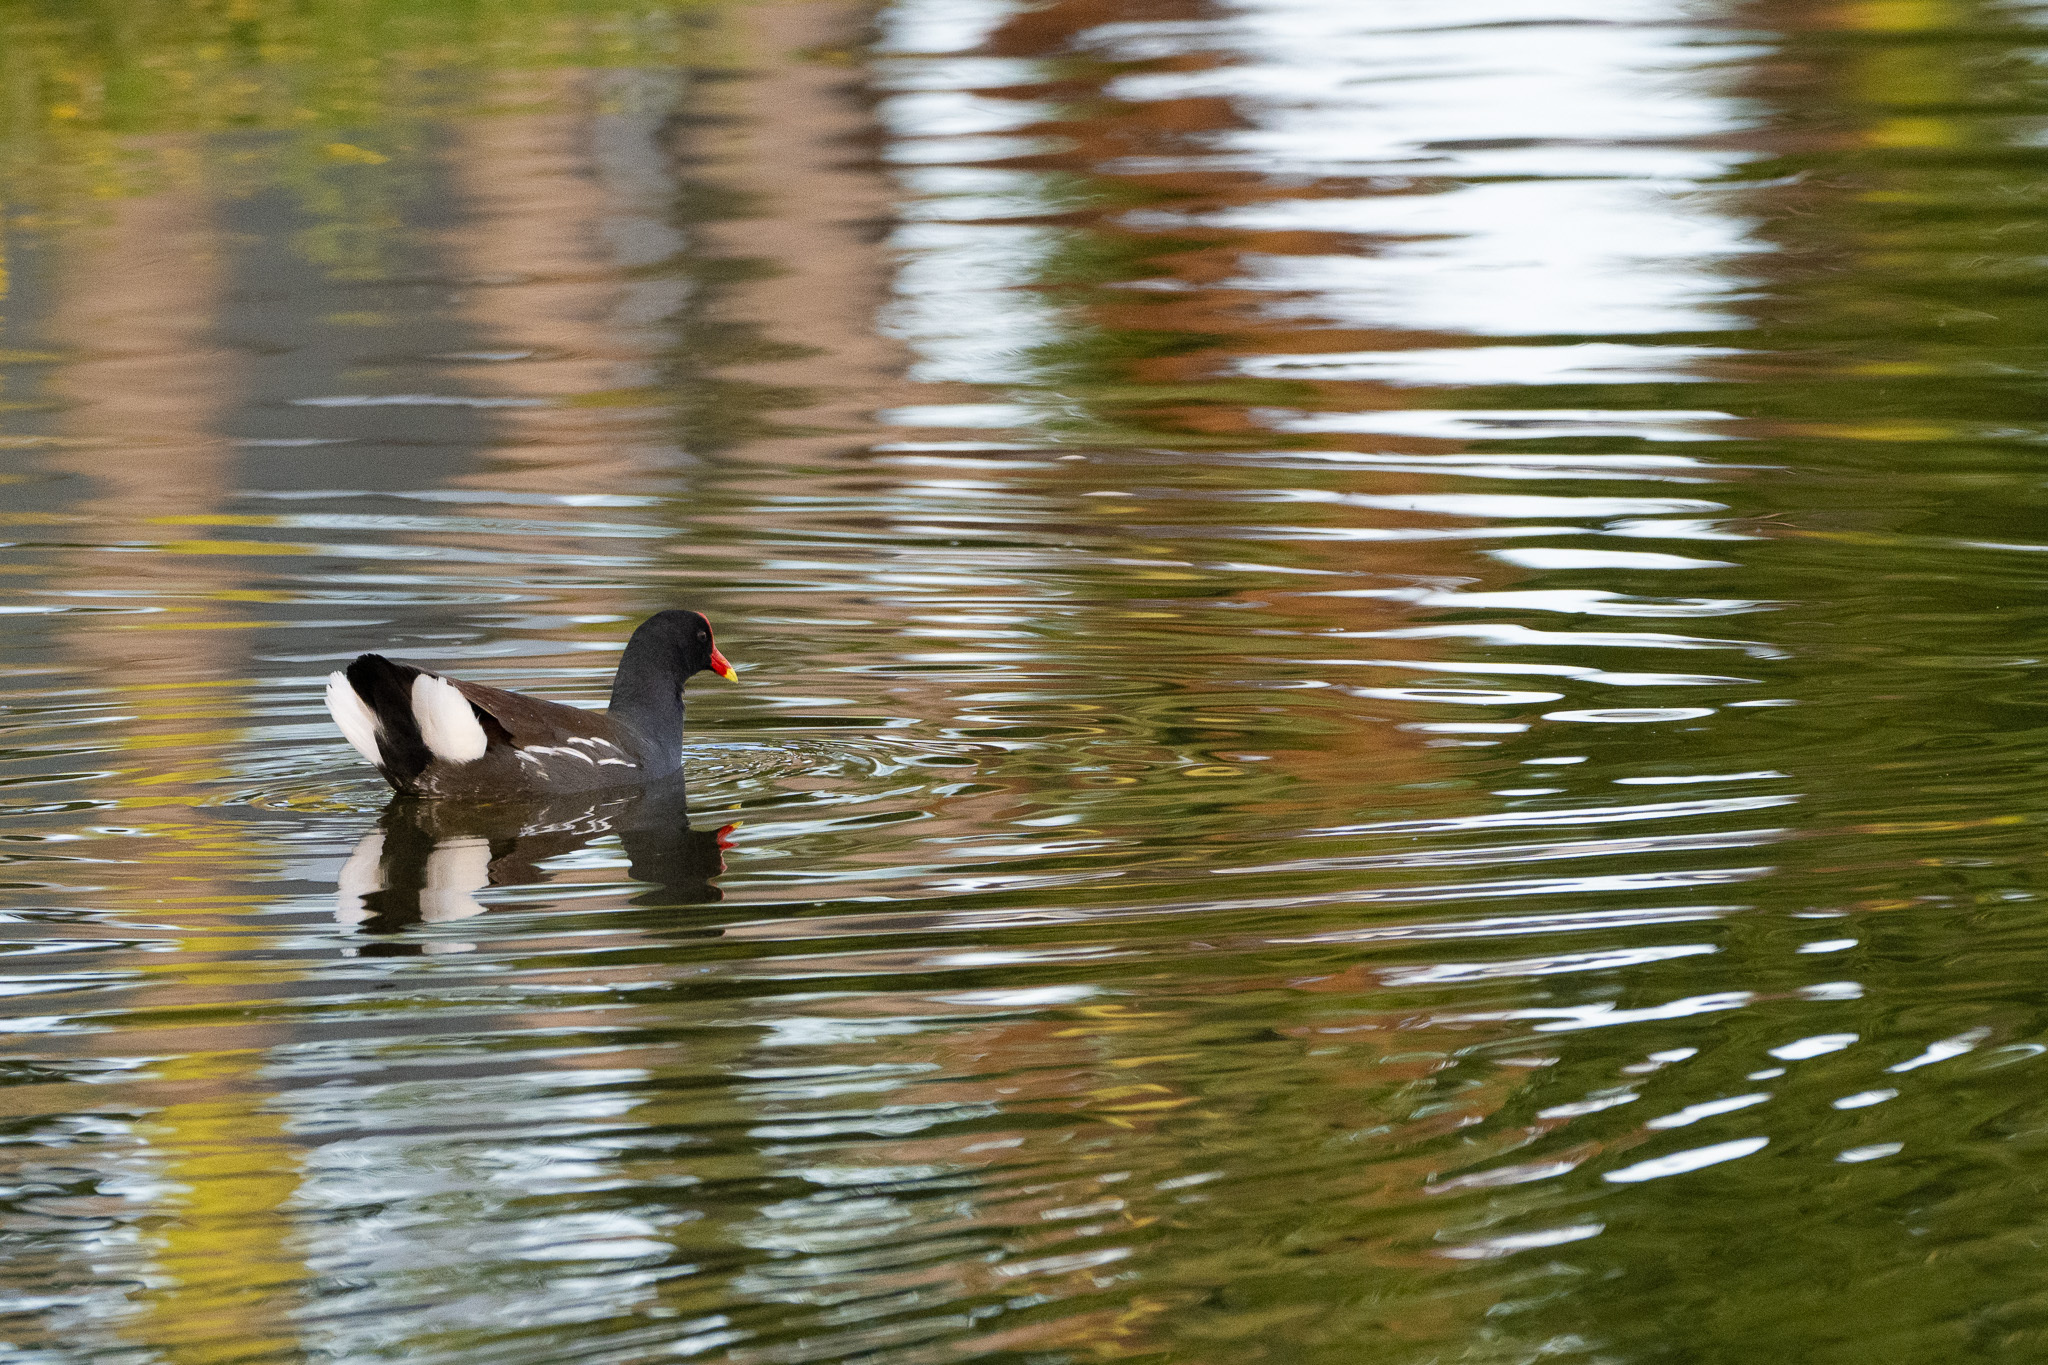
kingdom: Animalia
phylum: Chordata
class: Aves
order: Gruiformes
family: Rallidae
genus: Gallinula
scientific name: Gallinula chloropus
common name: Common moorhen
